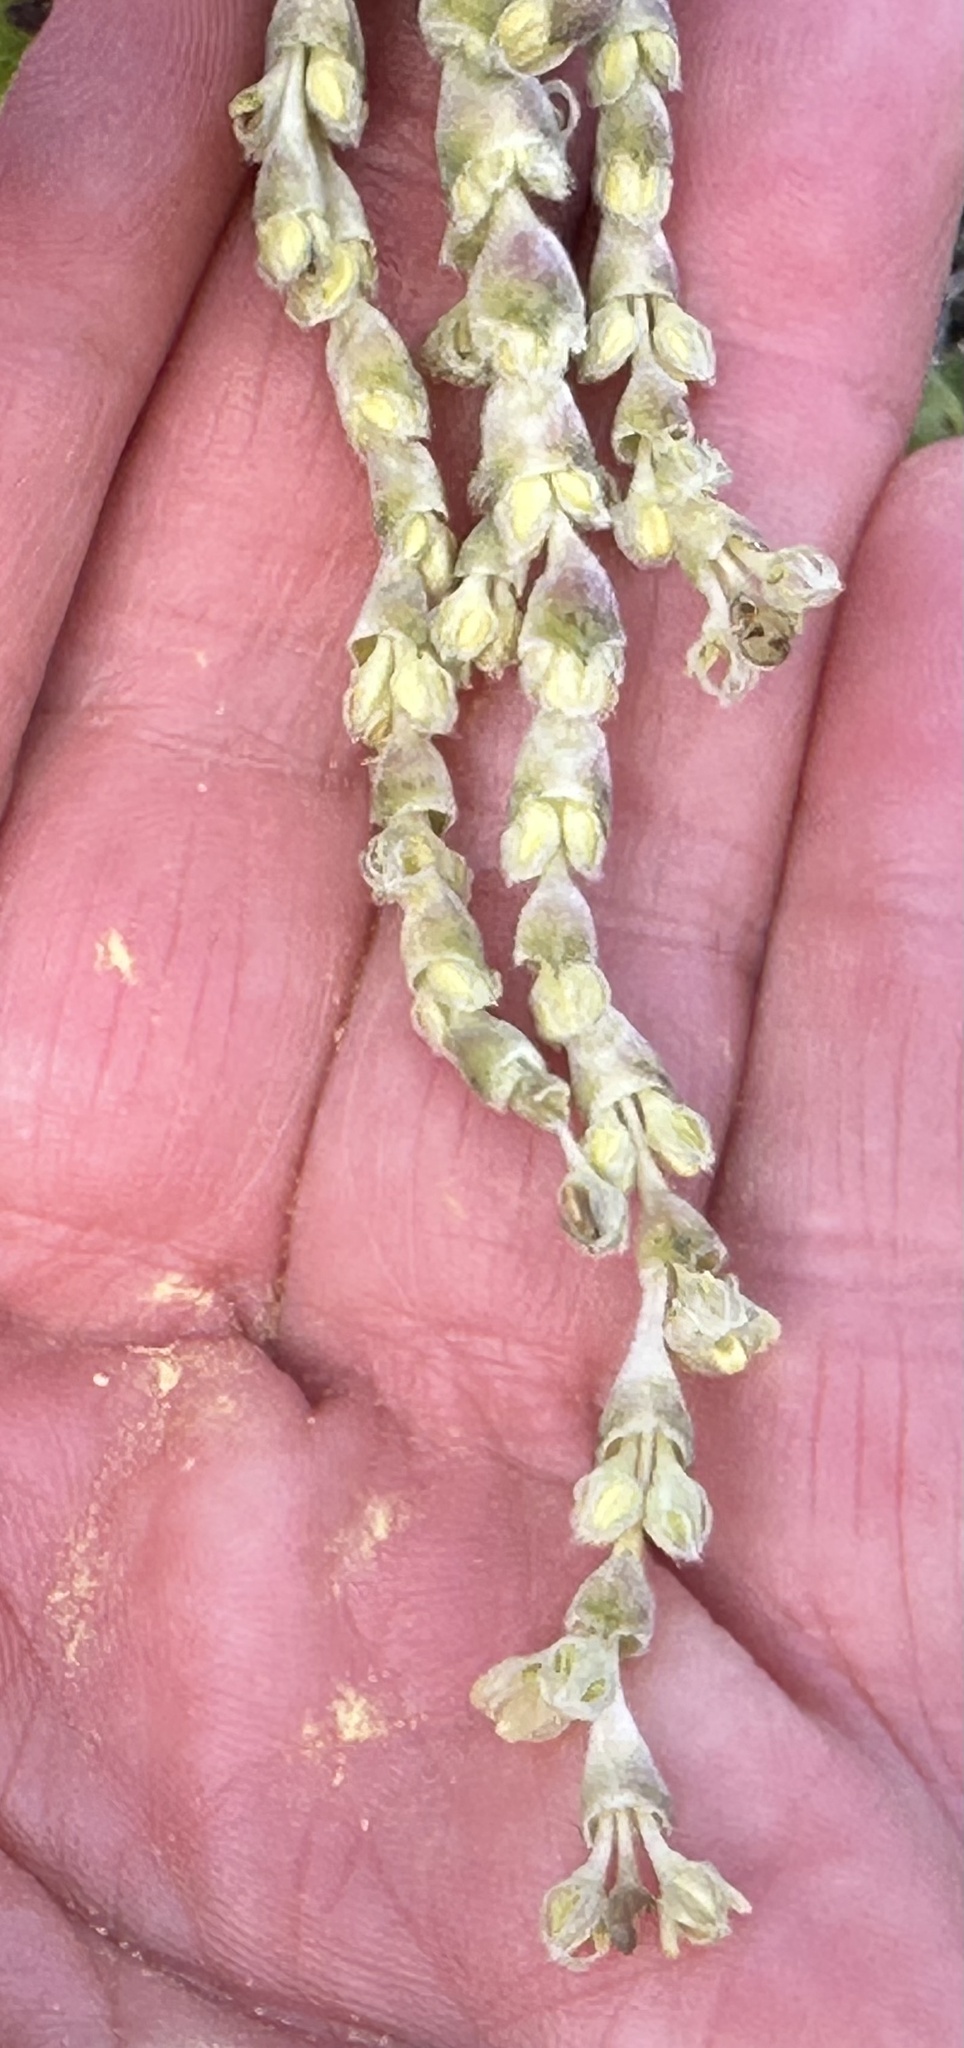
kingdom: Plantae
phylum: Tracheophyta
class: Magnoliopsida
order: Garryales
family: Garryaceae
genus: Garrya
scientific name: Garrya elliptica
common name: Silk-tassel
